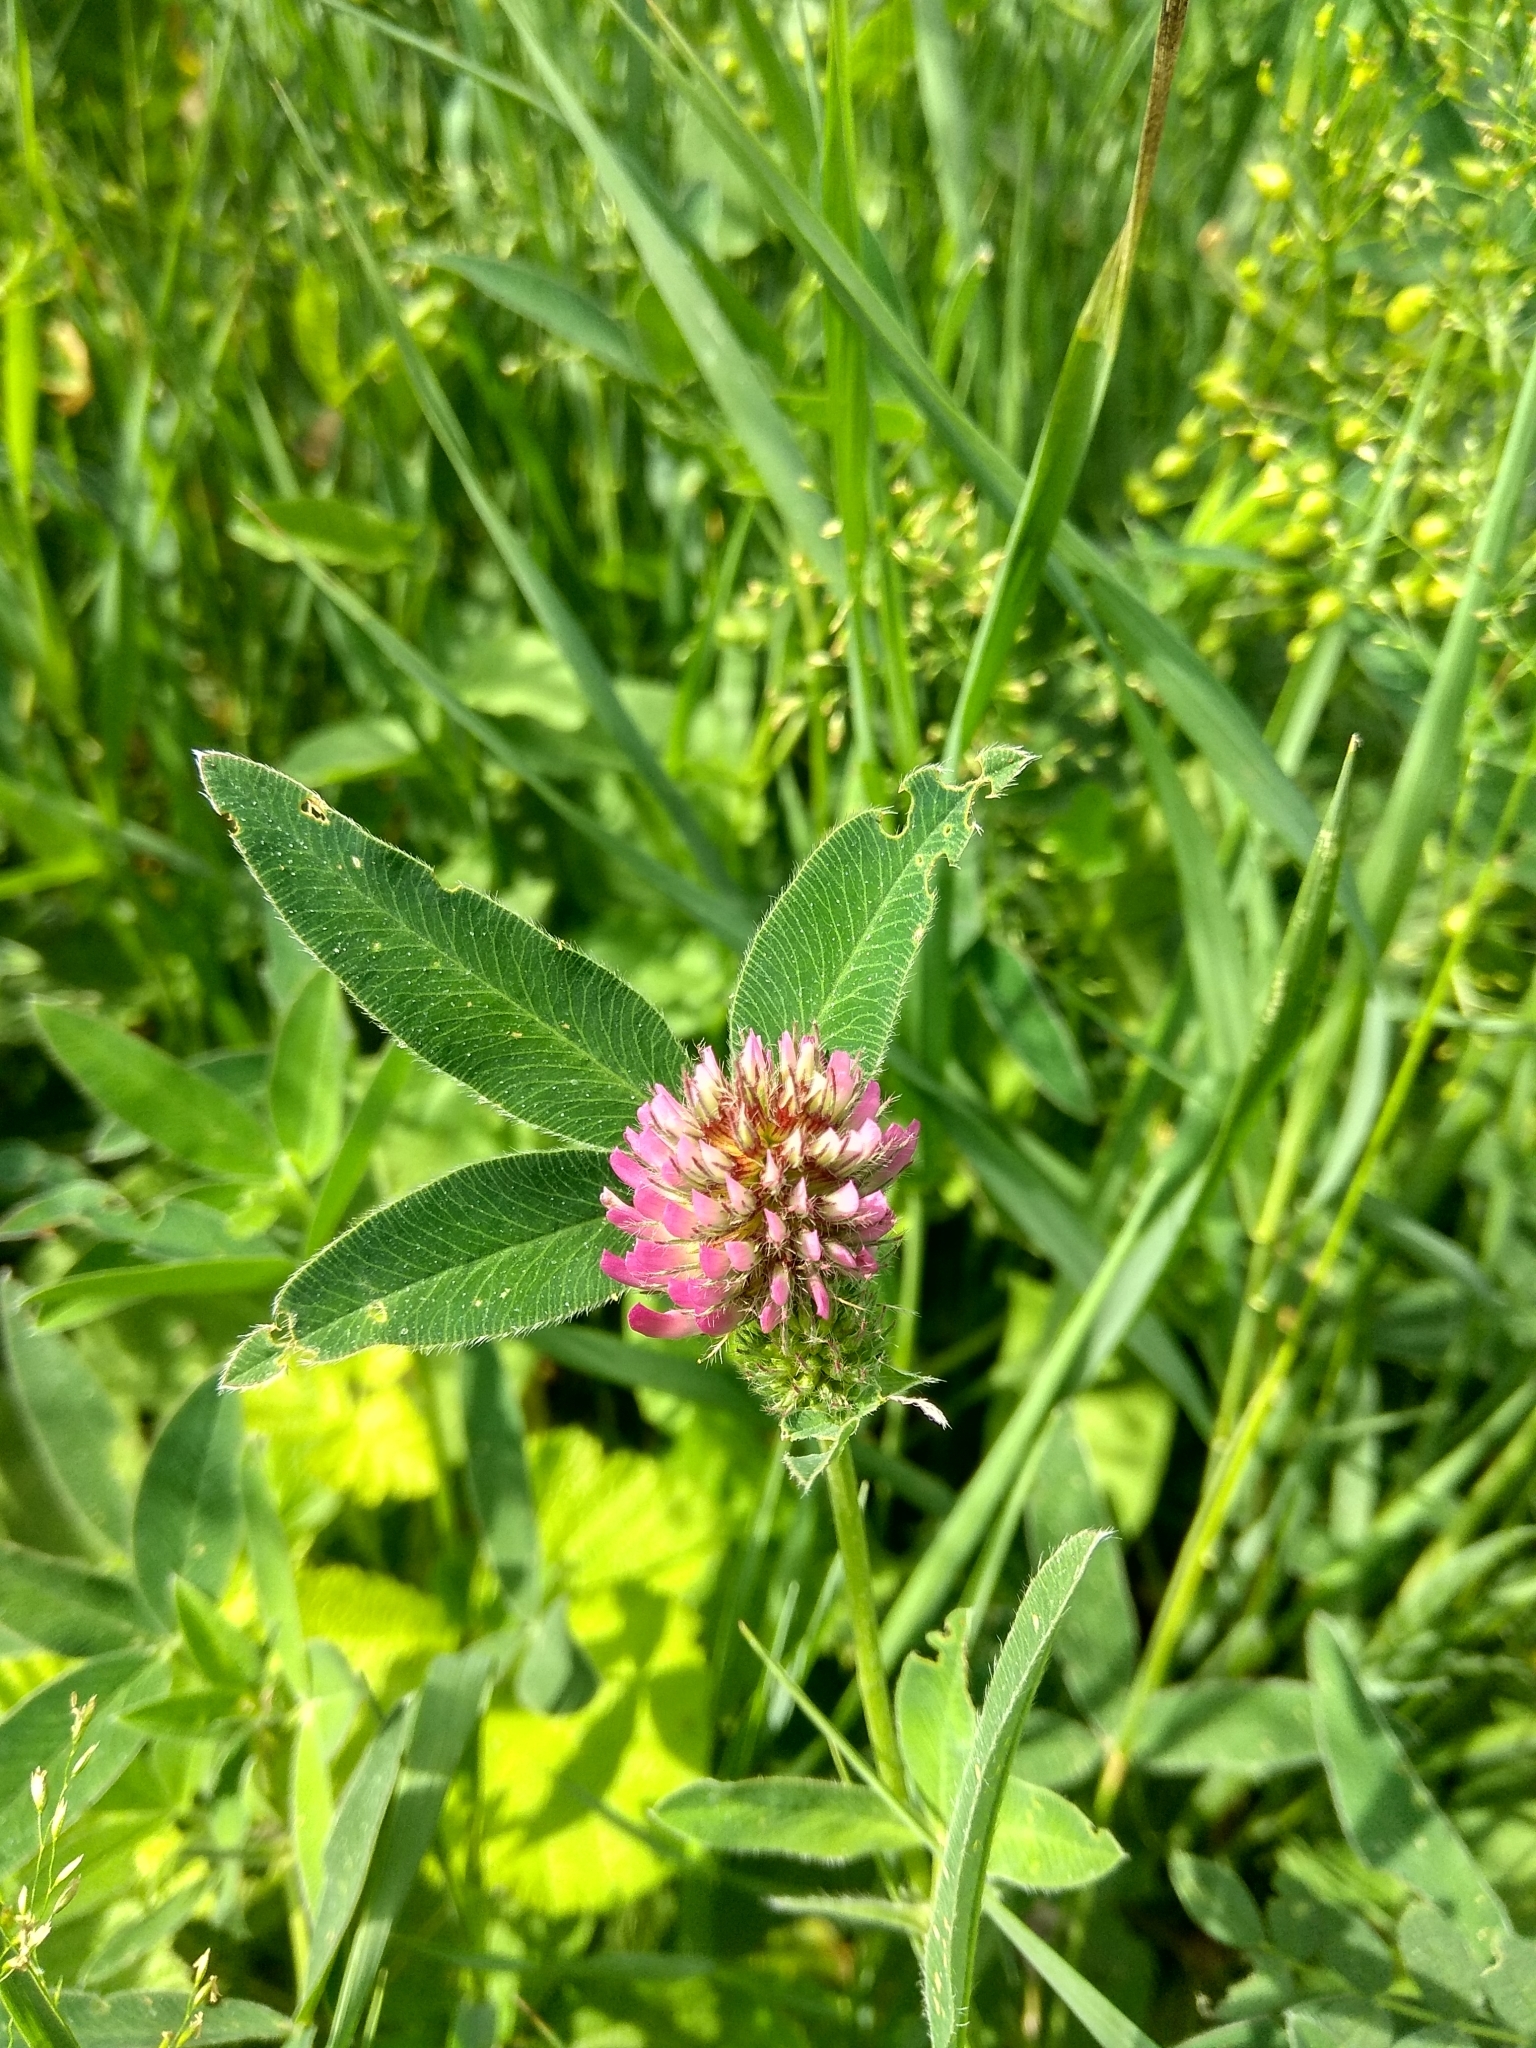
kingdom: Plantae
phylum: Tracheophyta
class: Magnoliopsida
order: Fabales
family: Fabaceae
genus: Trifolium
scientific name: Trifolium medium
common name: Zigzag clover
